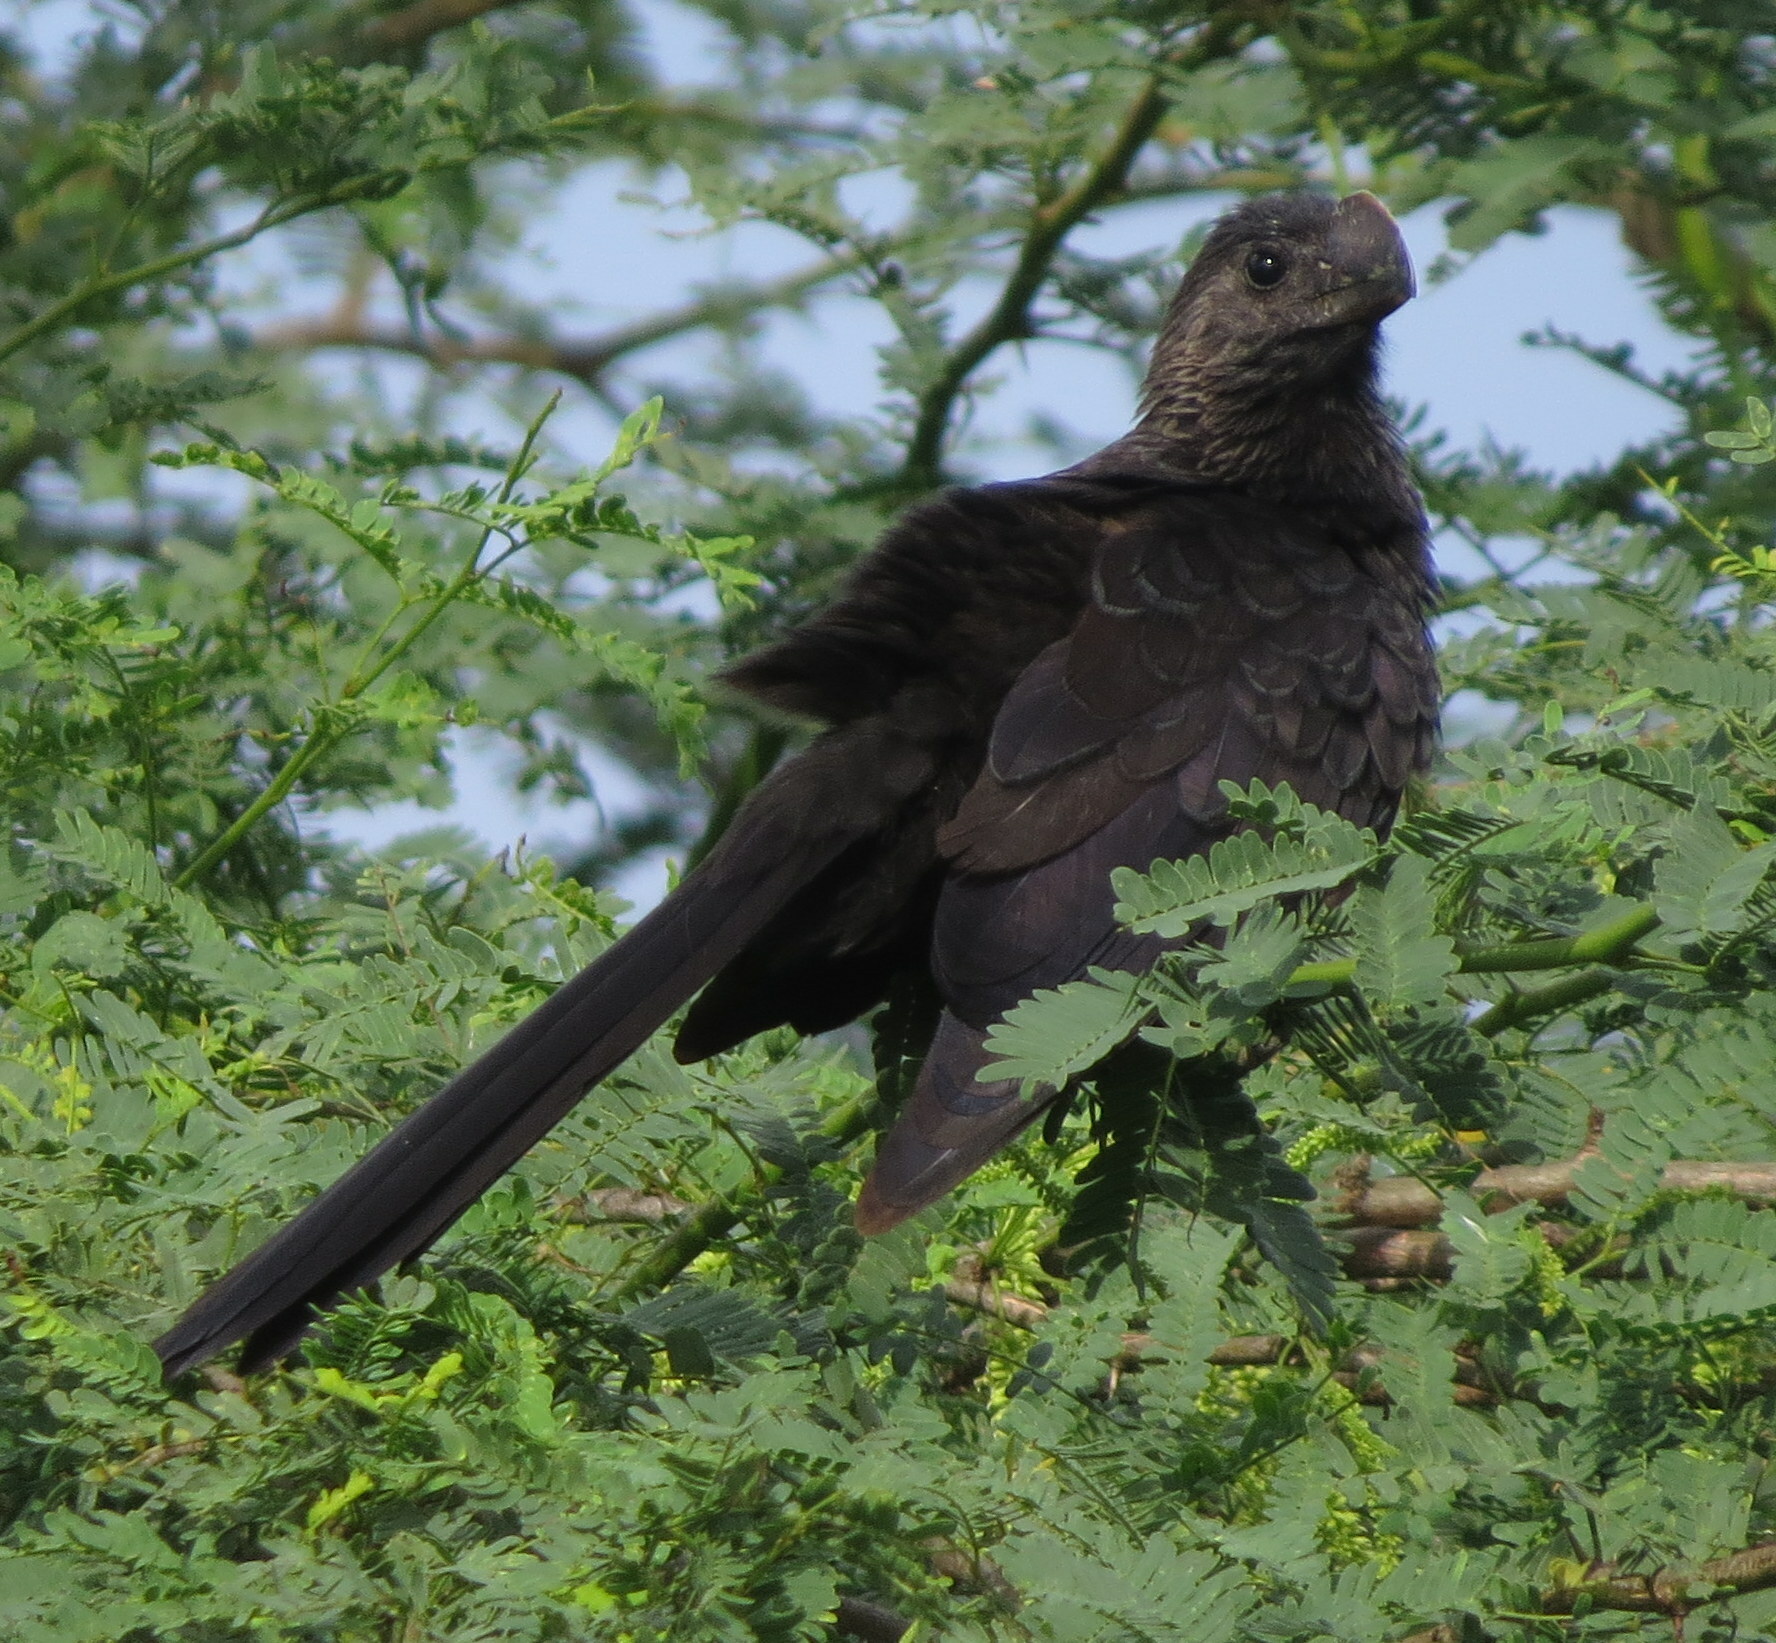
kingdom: Animalia
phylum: Chordata
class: Aves
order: Cuculiformes
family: Cuculidae
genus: Crotophaga
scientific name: Crotophaga ani
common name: Smooth-billed ani
